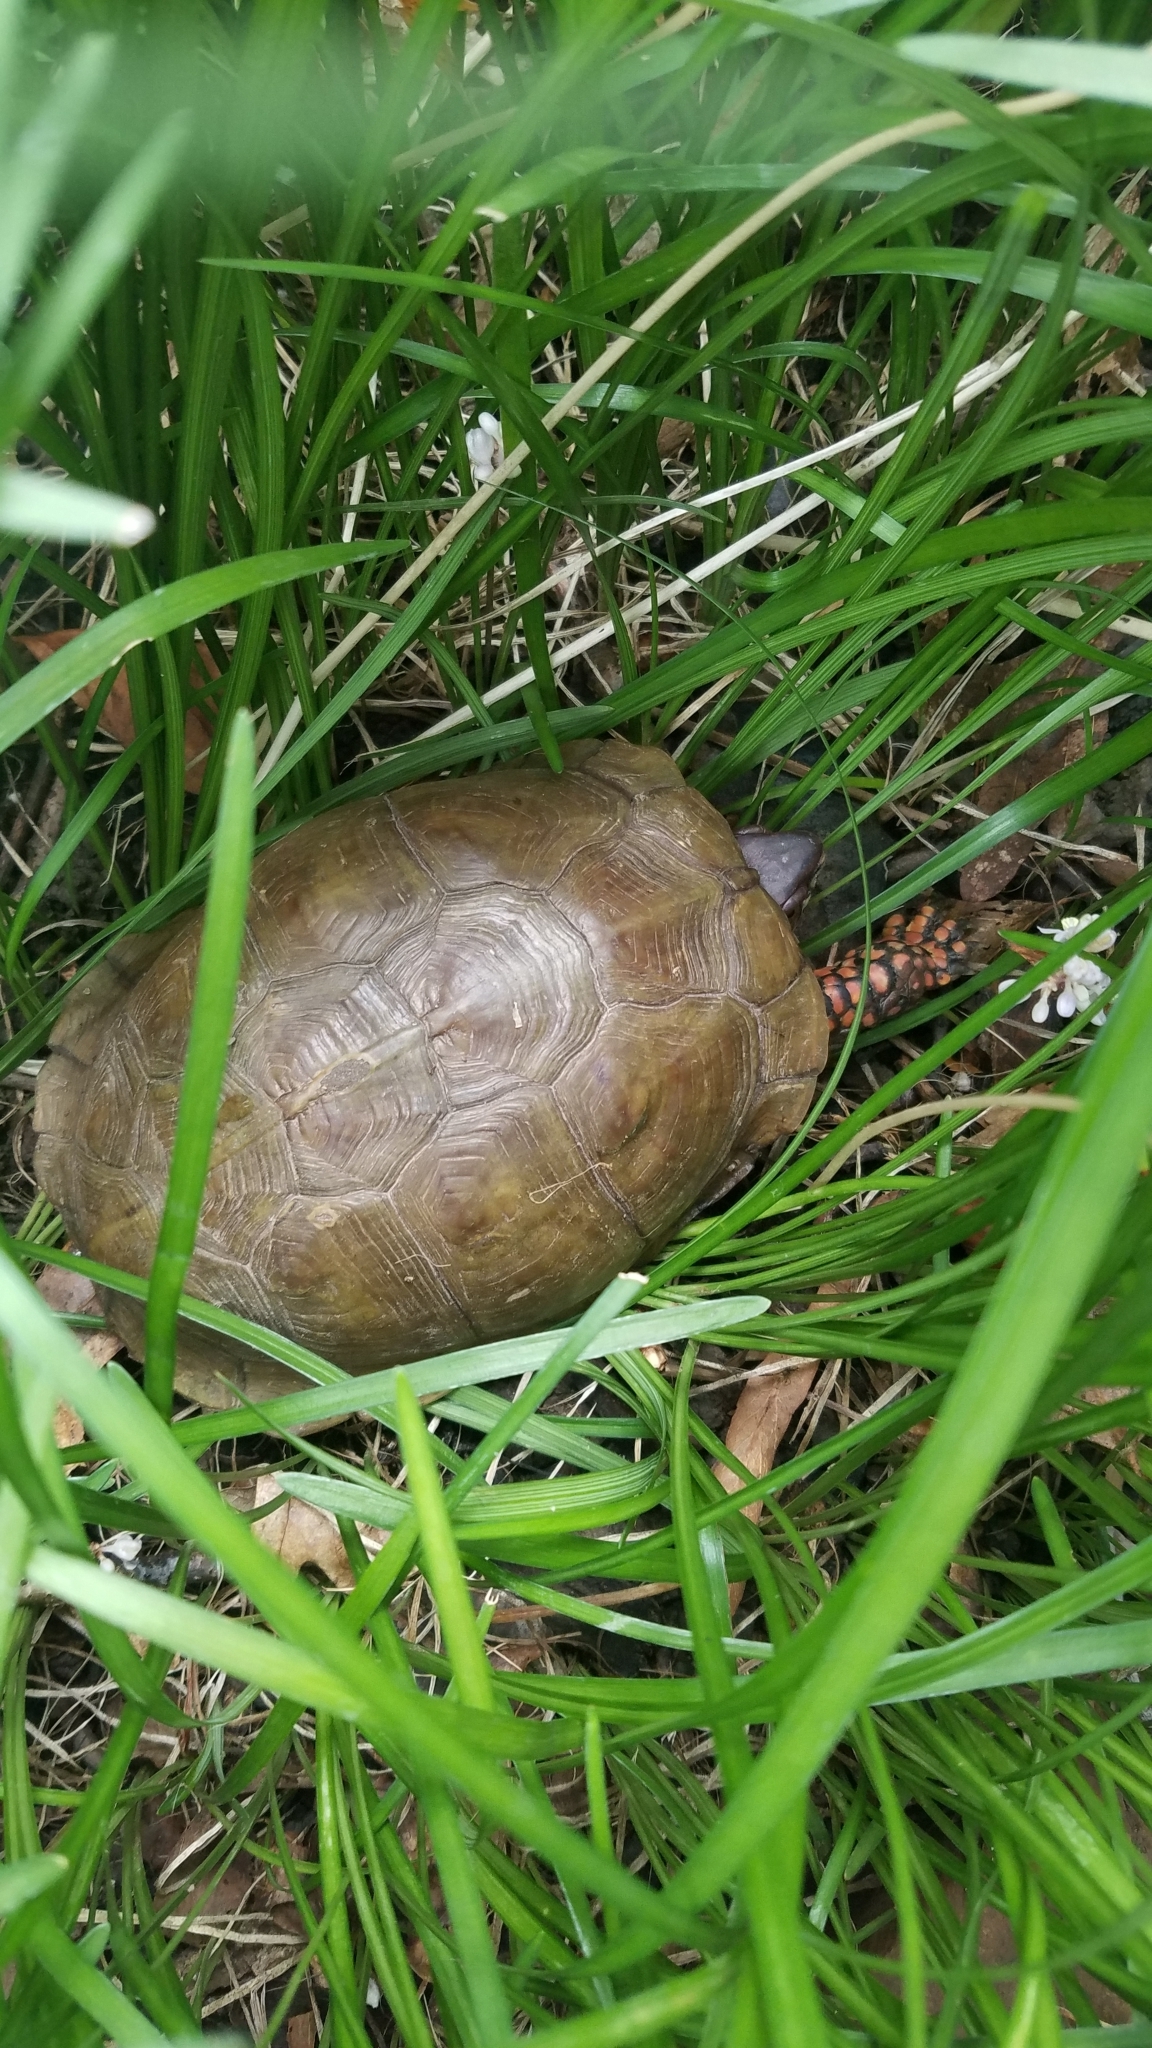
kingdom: Animalia
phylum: Chordata
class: Testudines
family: Emydidae
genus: Terrapene
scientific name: Terrapene carolina
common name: Common box turtle
